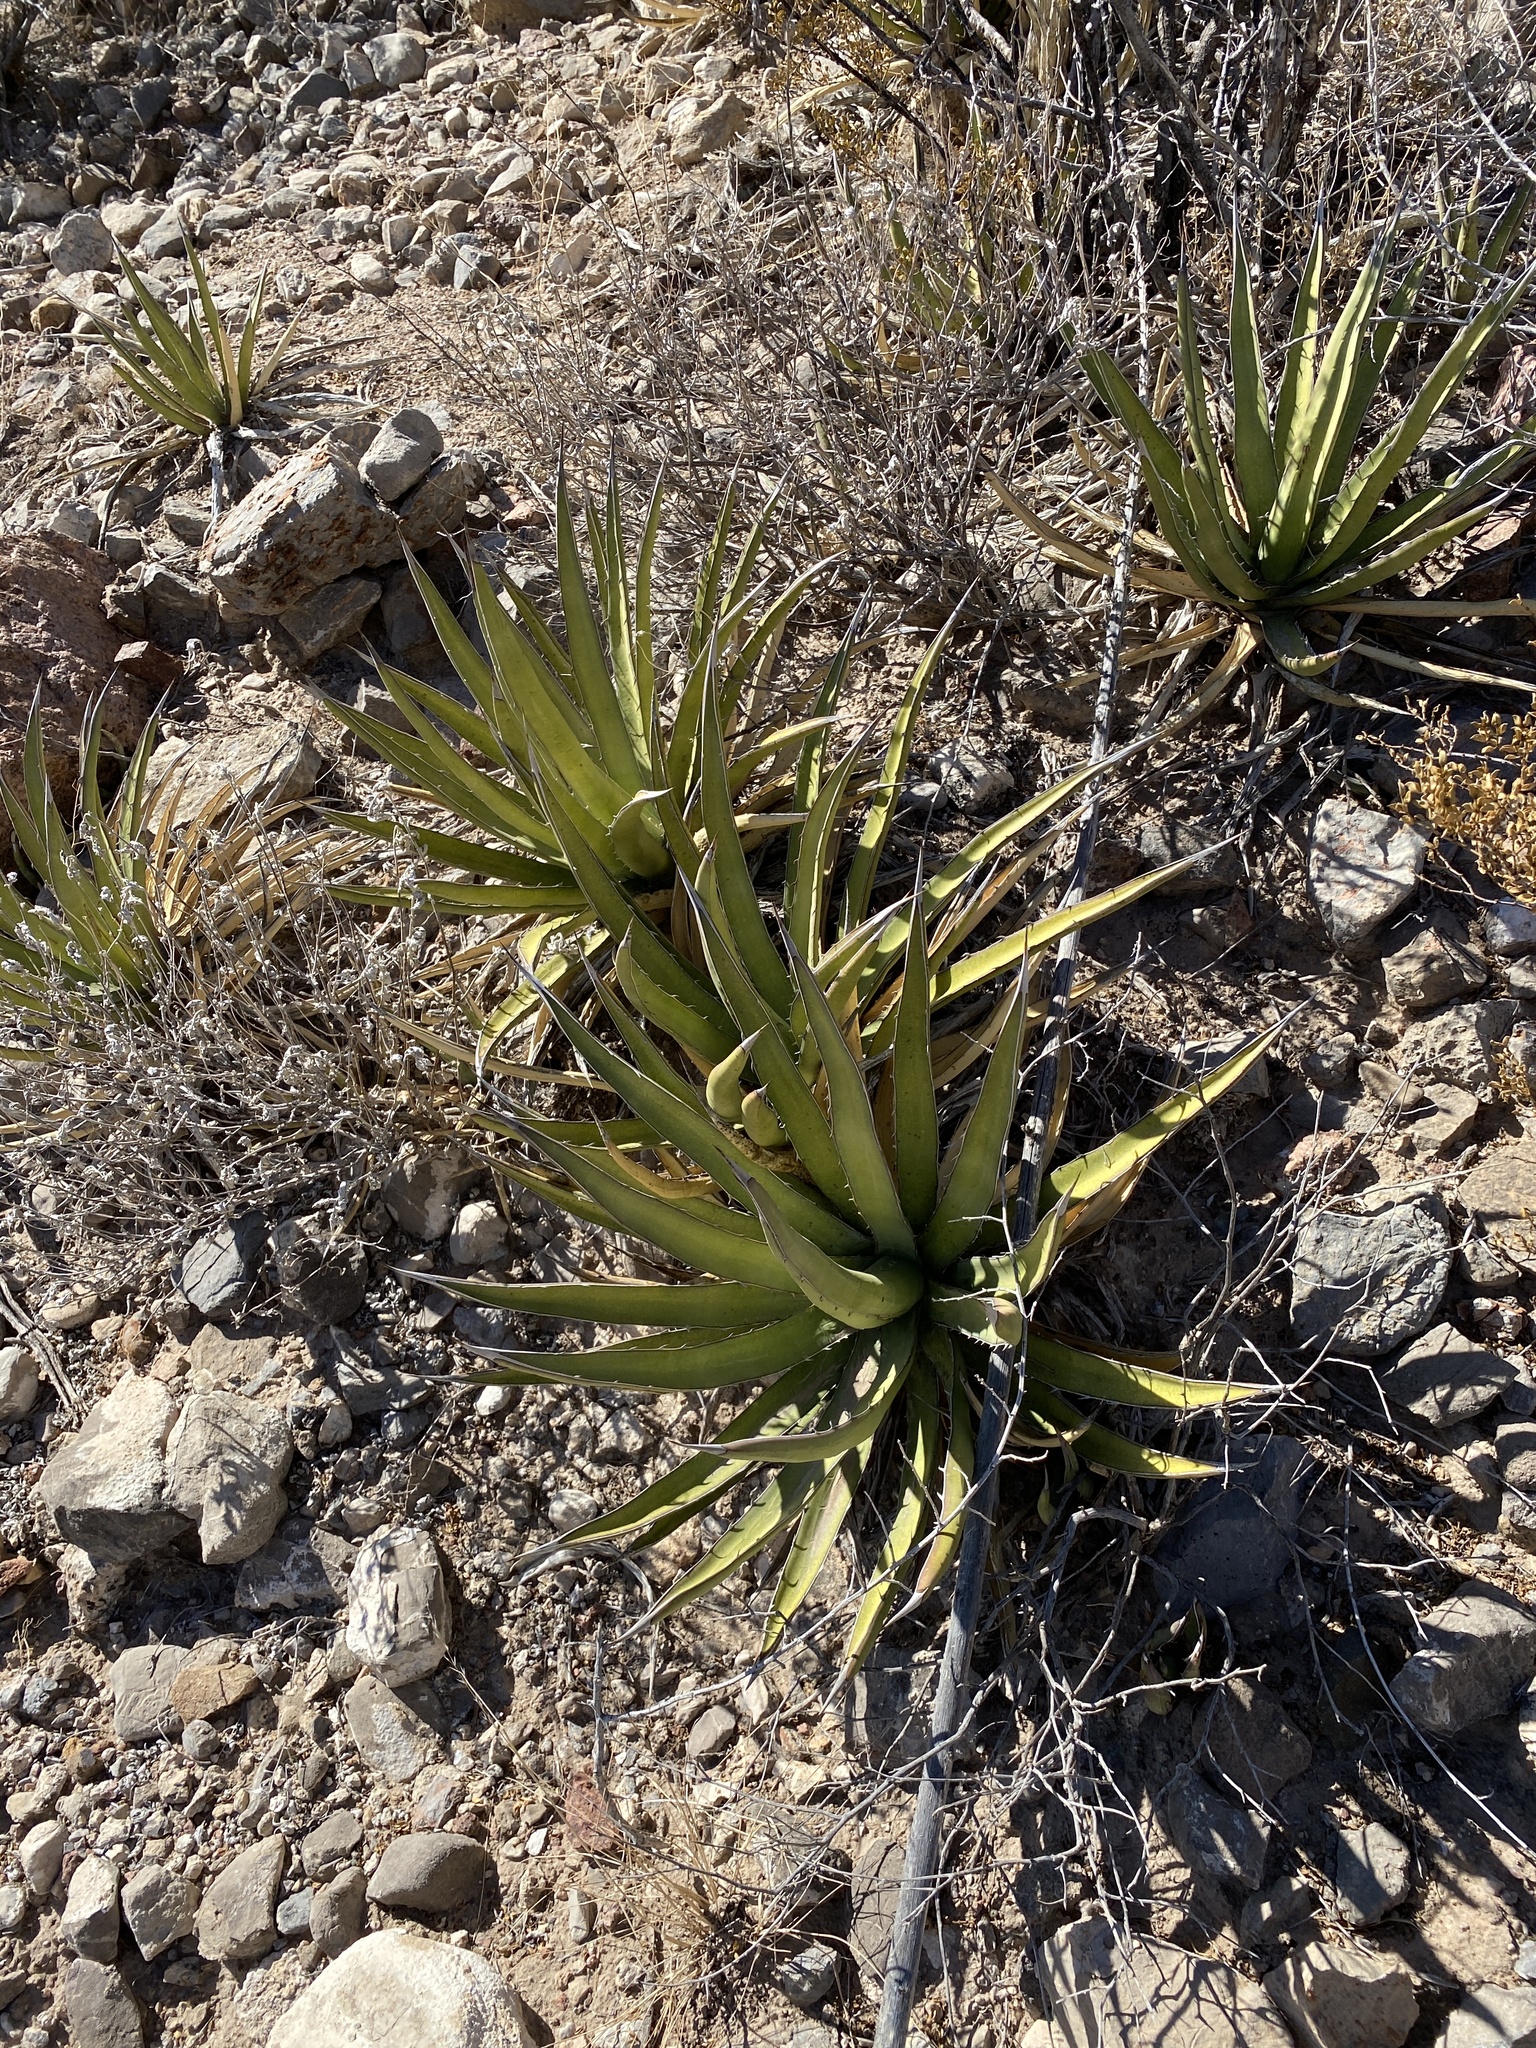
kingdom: Plantae
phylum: Tracheophyta
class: Liliopsida
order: Asparagales
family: Asparagaceae
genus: Agave
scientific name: Agave lechuguilla
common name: Lecheguilla agave
